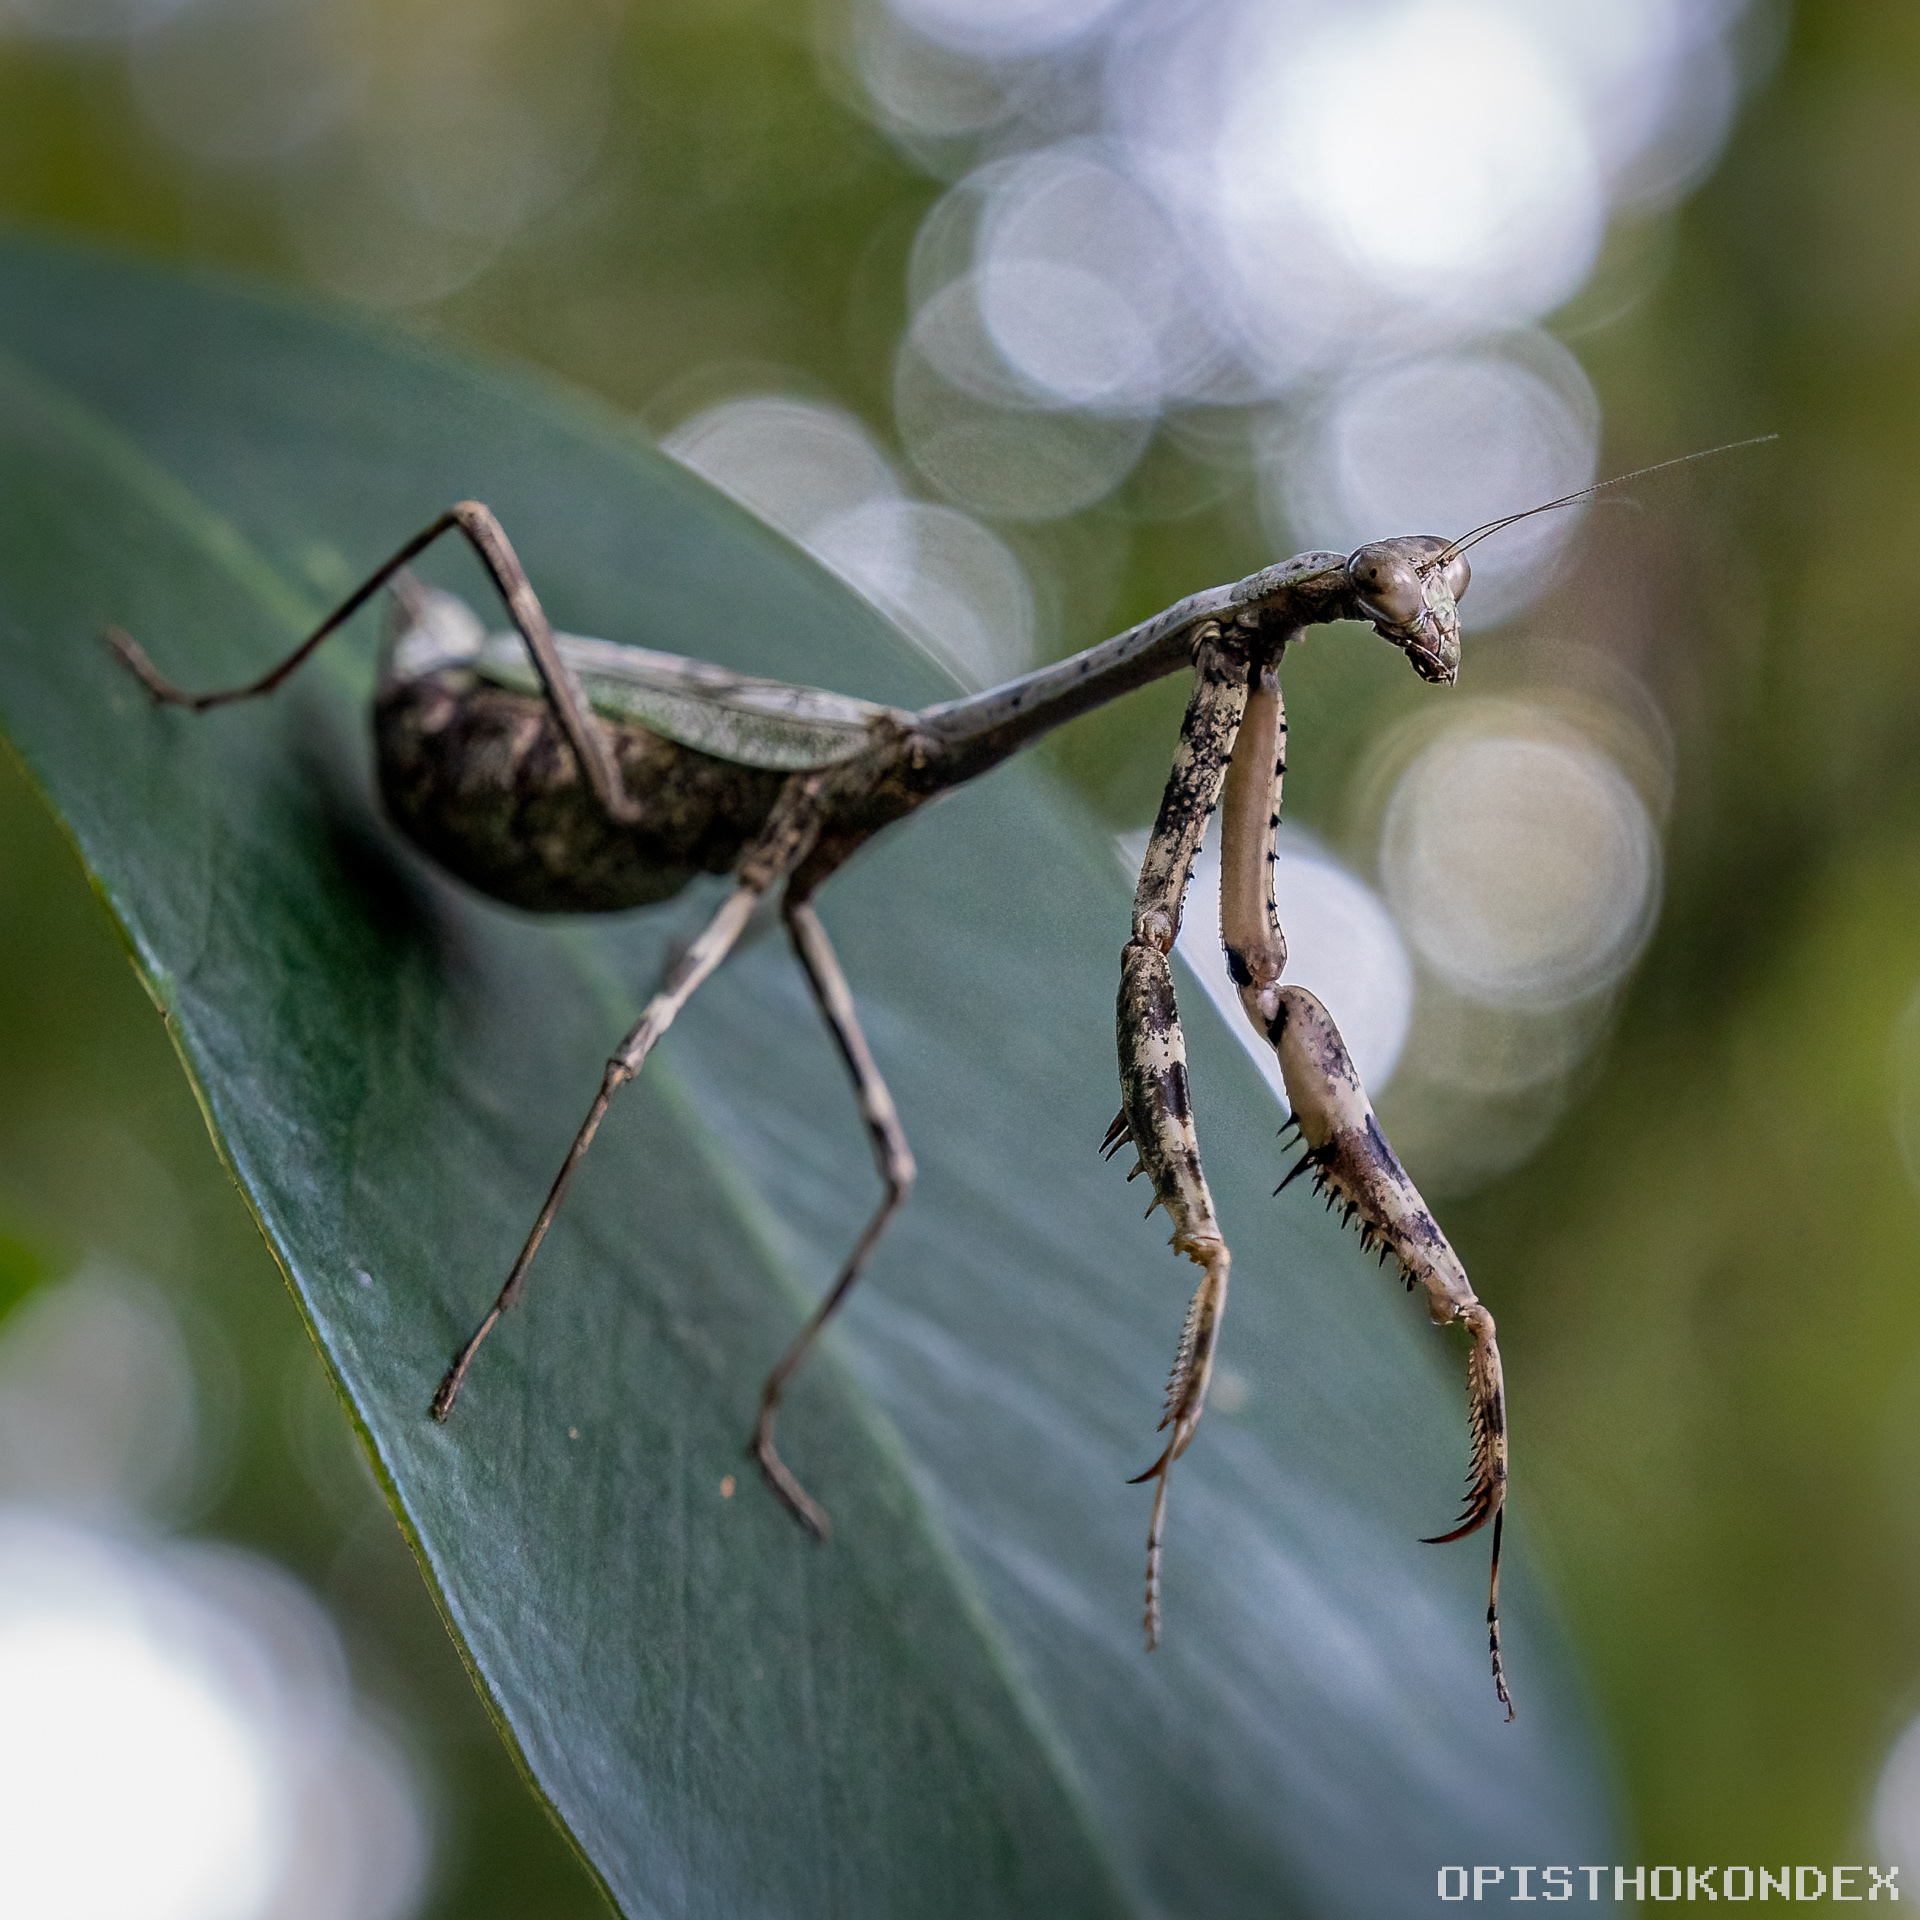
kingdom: Animalia
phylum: Arthropoda
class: Insecta
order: Mantodea
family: Mantidae
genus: Stagmomantis
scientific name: Stagmomantis carolina
